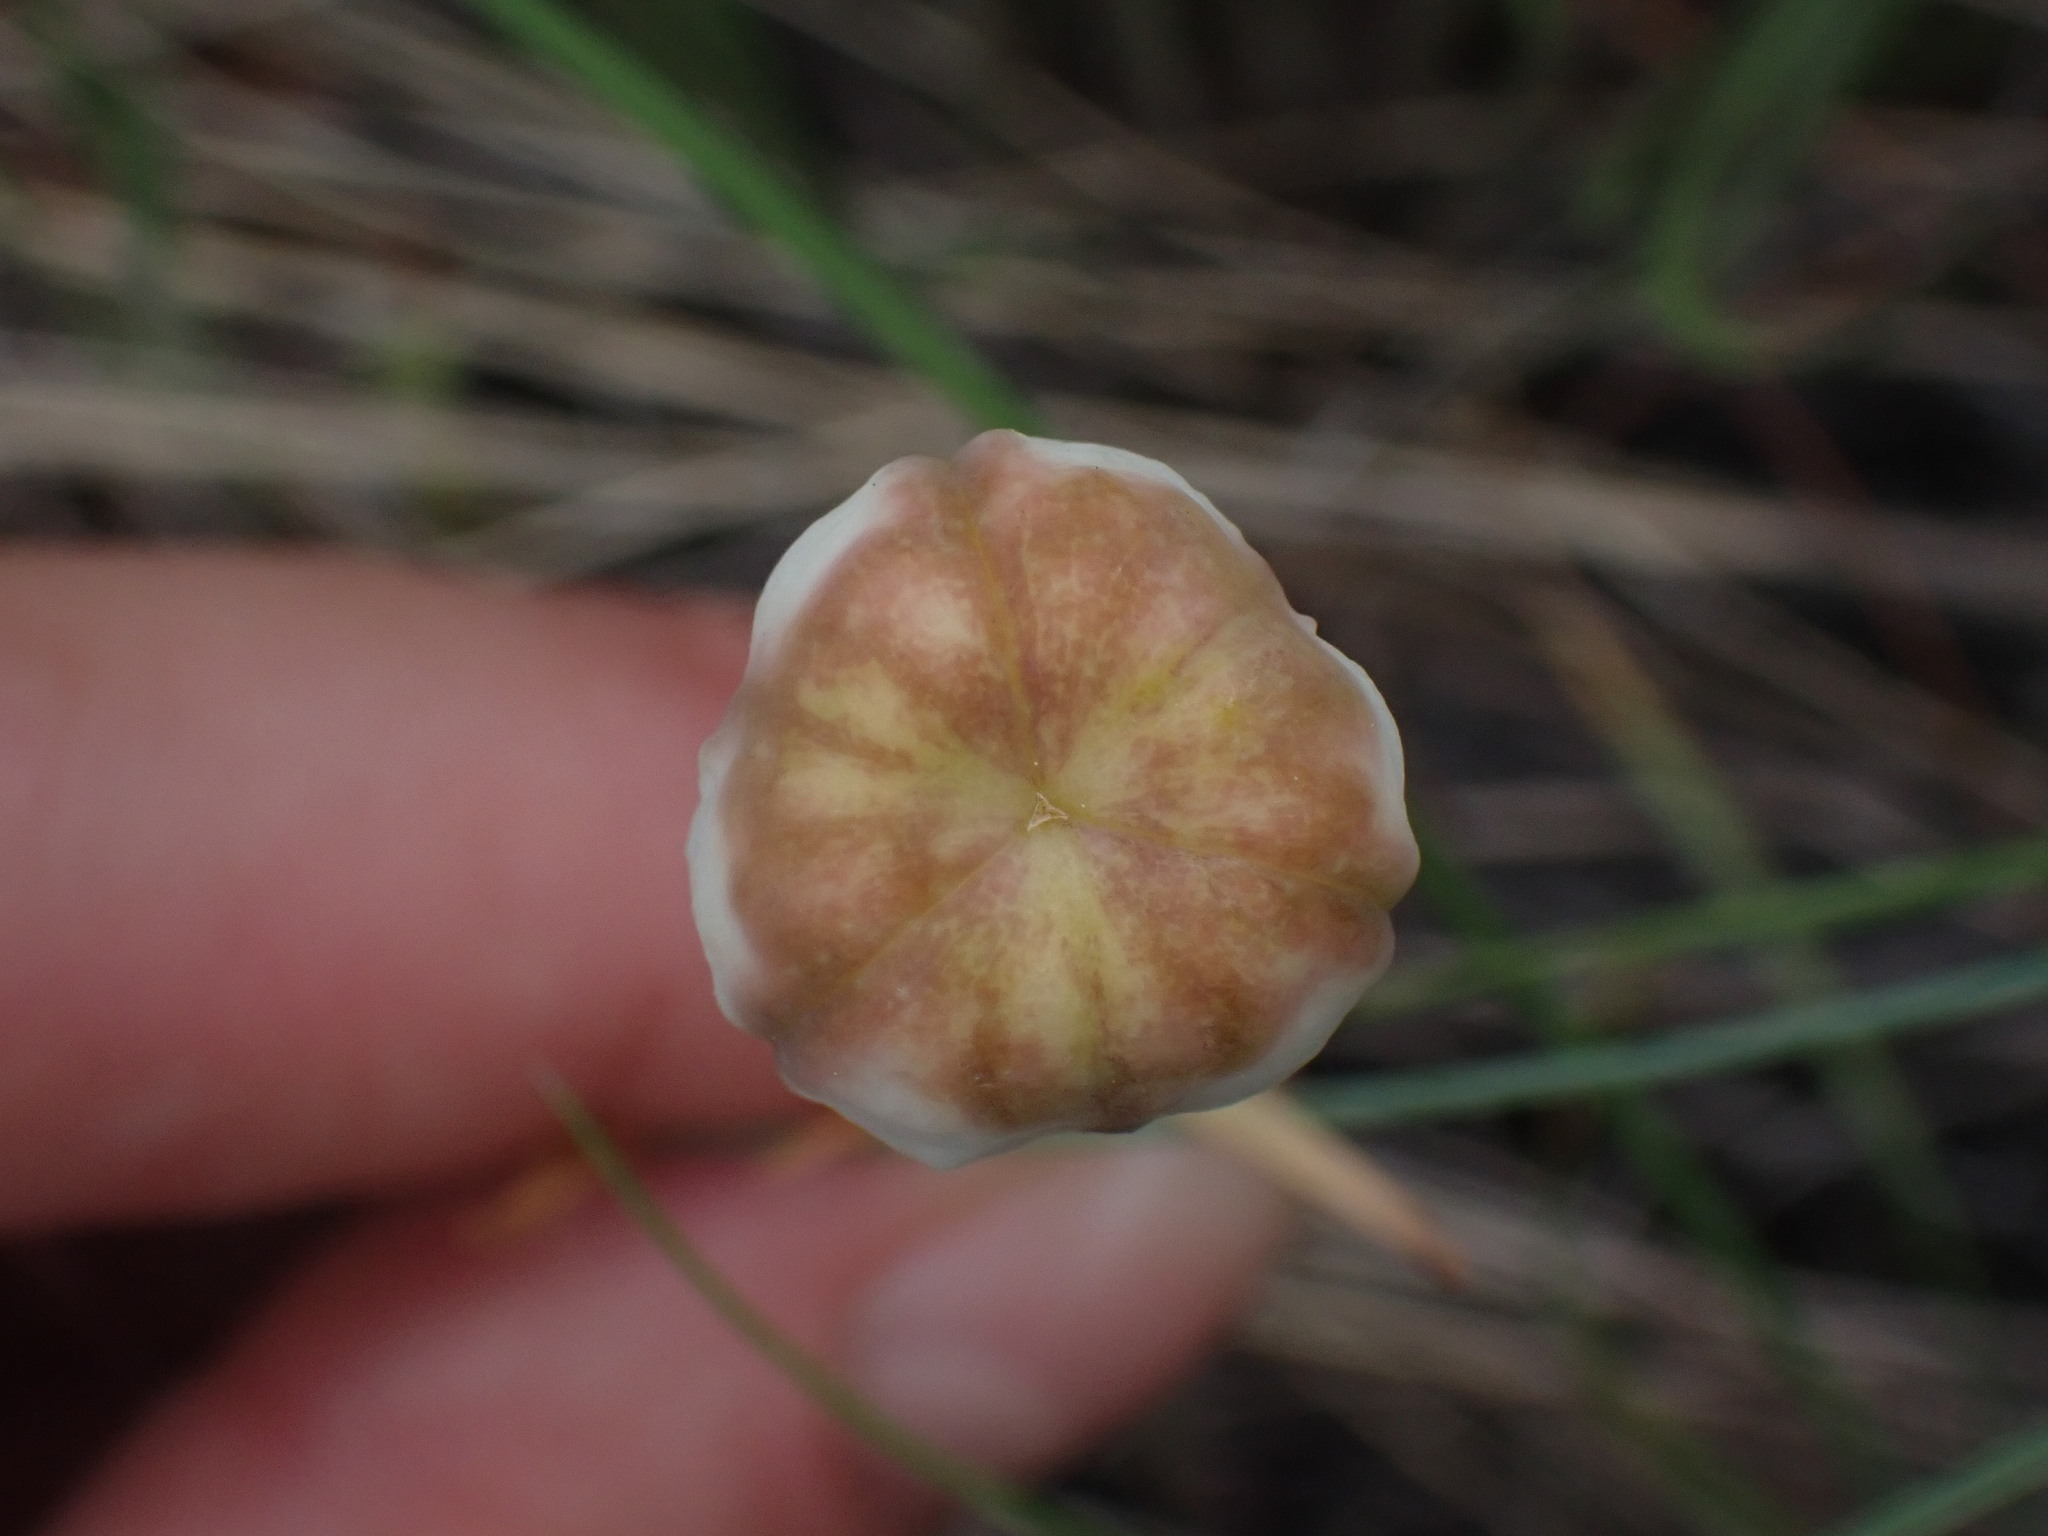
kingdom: Plantae
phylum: Tracheophyta
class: Liliopsida
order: Liliales
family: Liliaceae
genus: Fritillaria
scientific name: Fritillaria pudica
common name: Yellow fritillary
